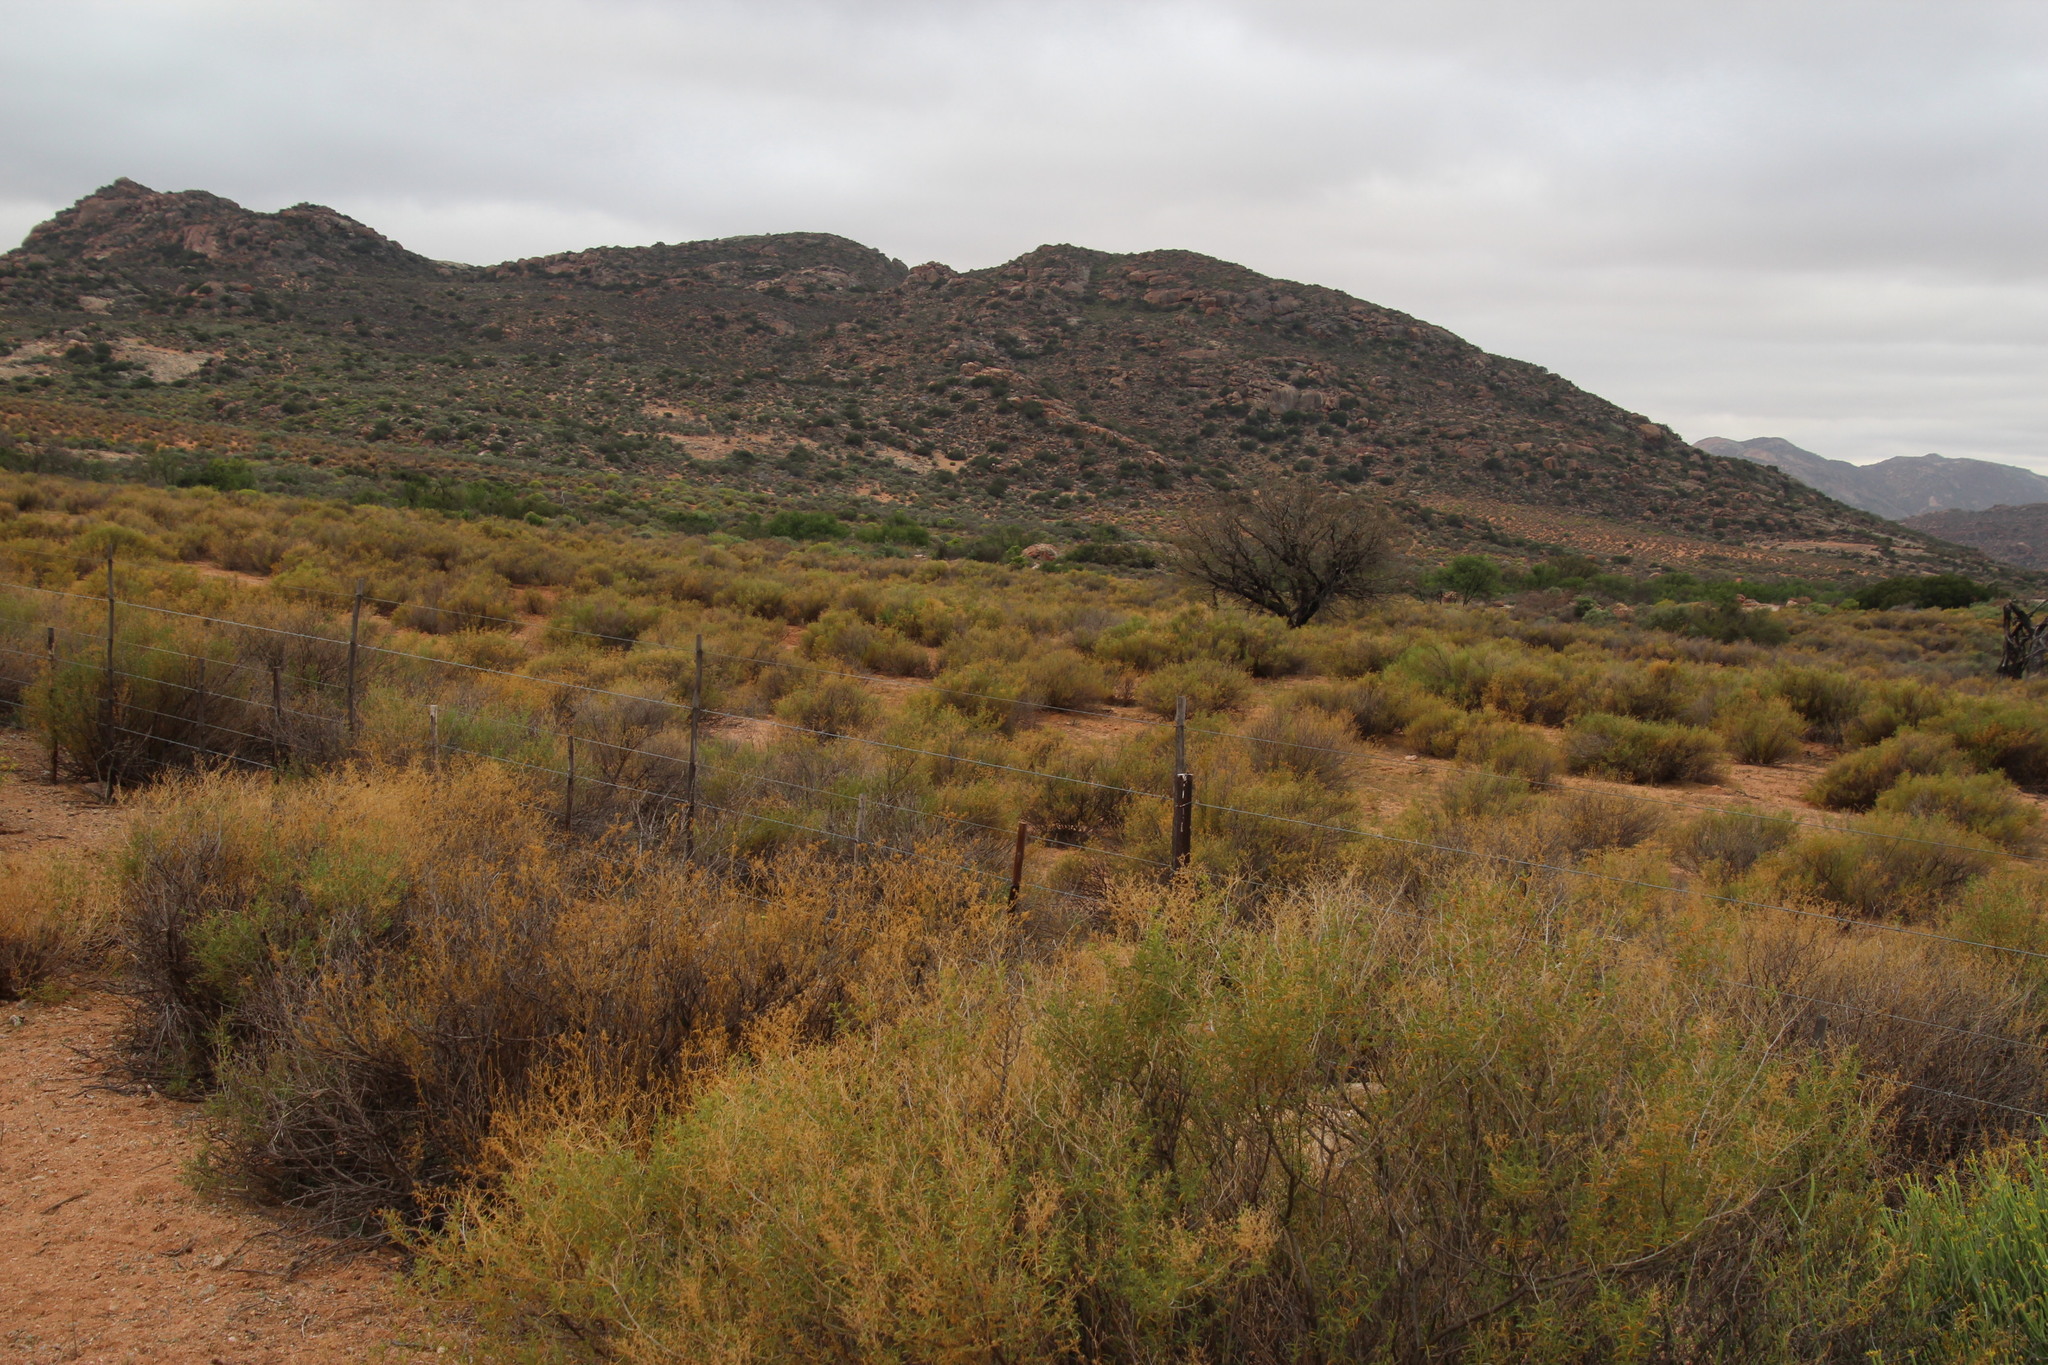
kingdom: Plantae
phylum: Tracheophyta
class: Magnoliopsida
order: Malpighiales
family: Euphorbiaceae
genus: Euphorbia
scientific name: Euphorbia mauritanica
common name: Jackal's-food
